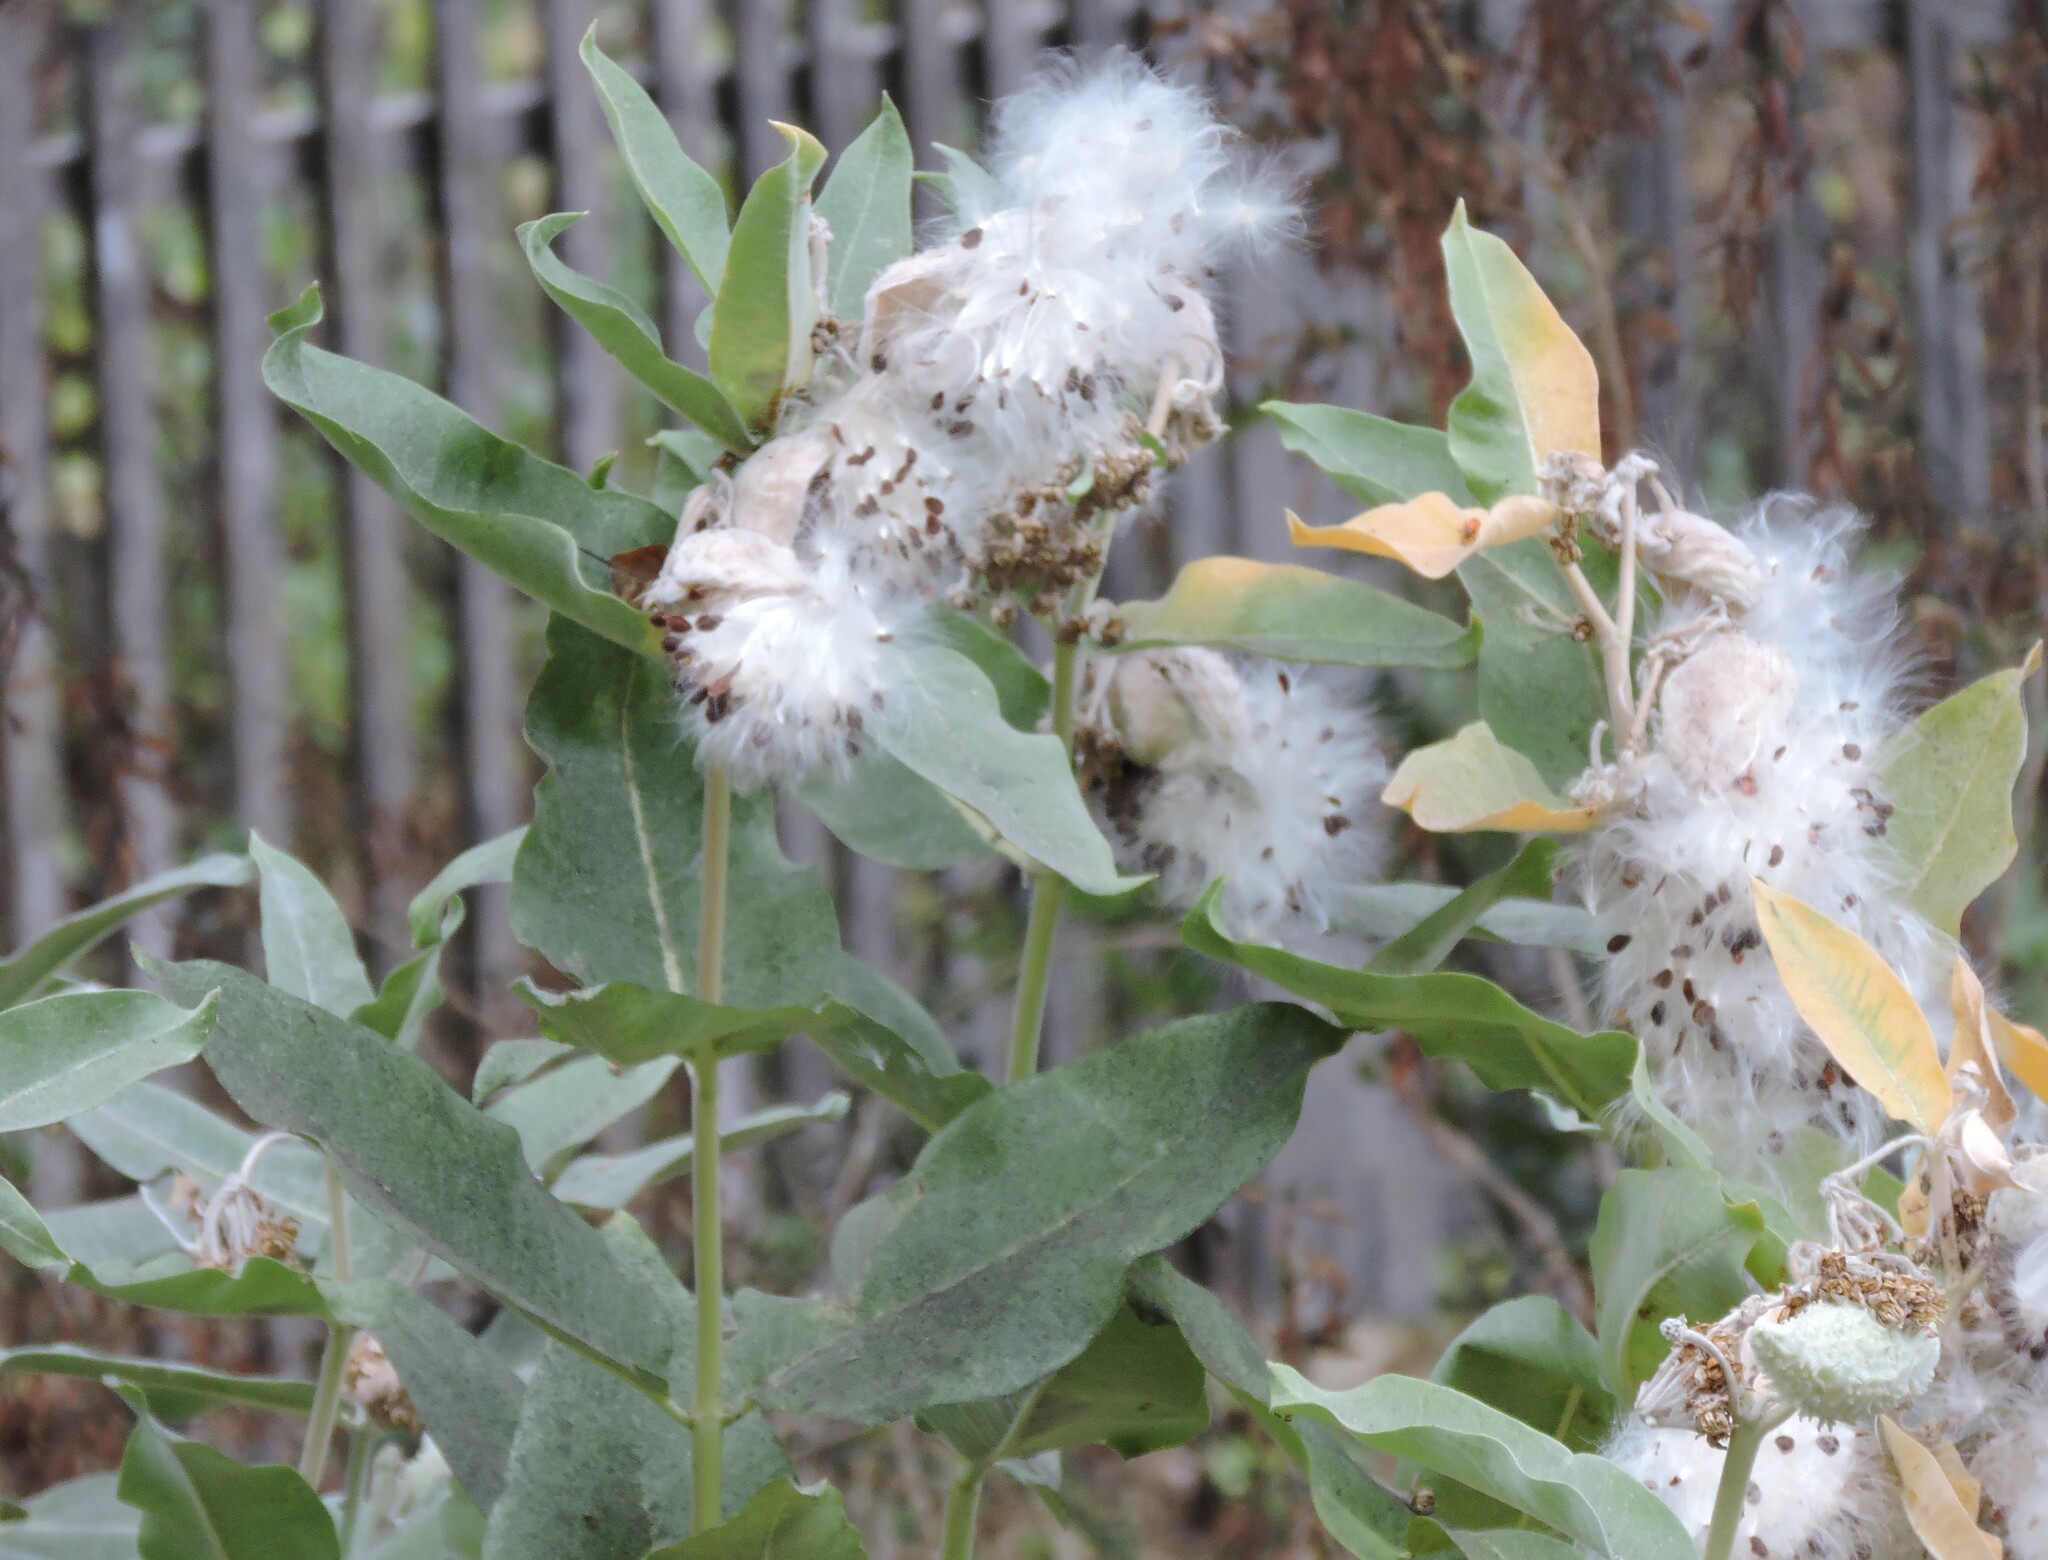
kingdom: Plantae
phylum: Tracheophyta
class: Magnoliopsida
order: Gentianales
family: Apocynaceae
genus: Asclepias
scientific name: Asclepias speciosa
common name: Showy milkweed
